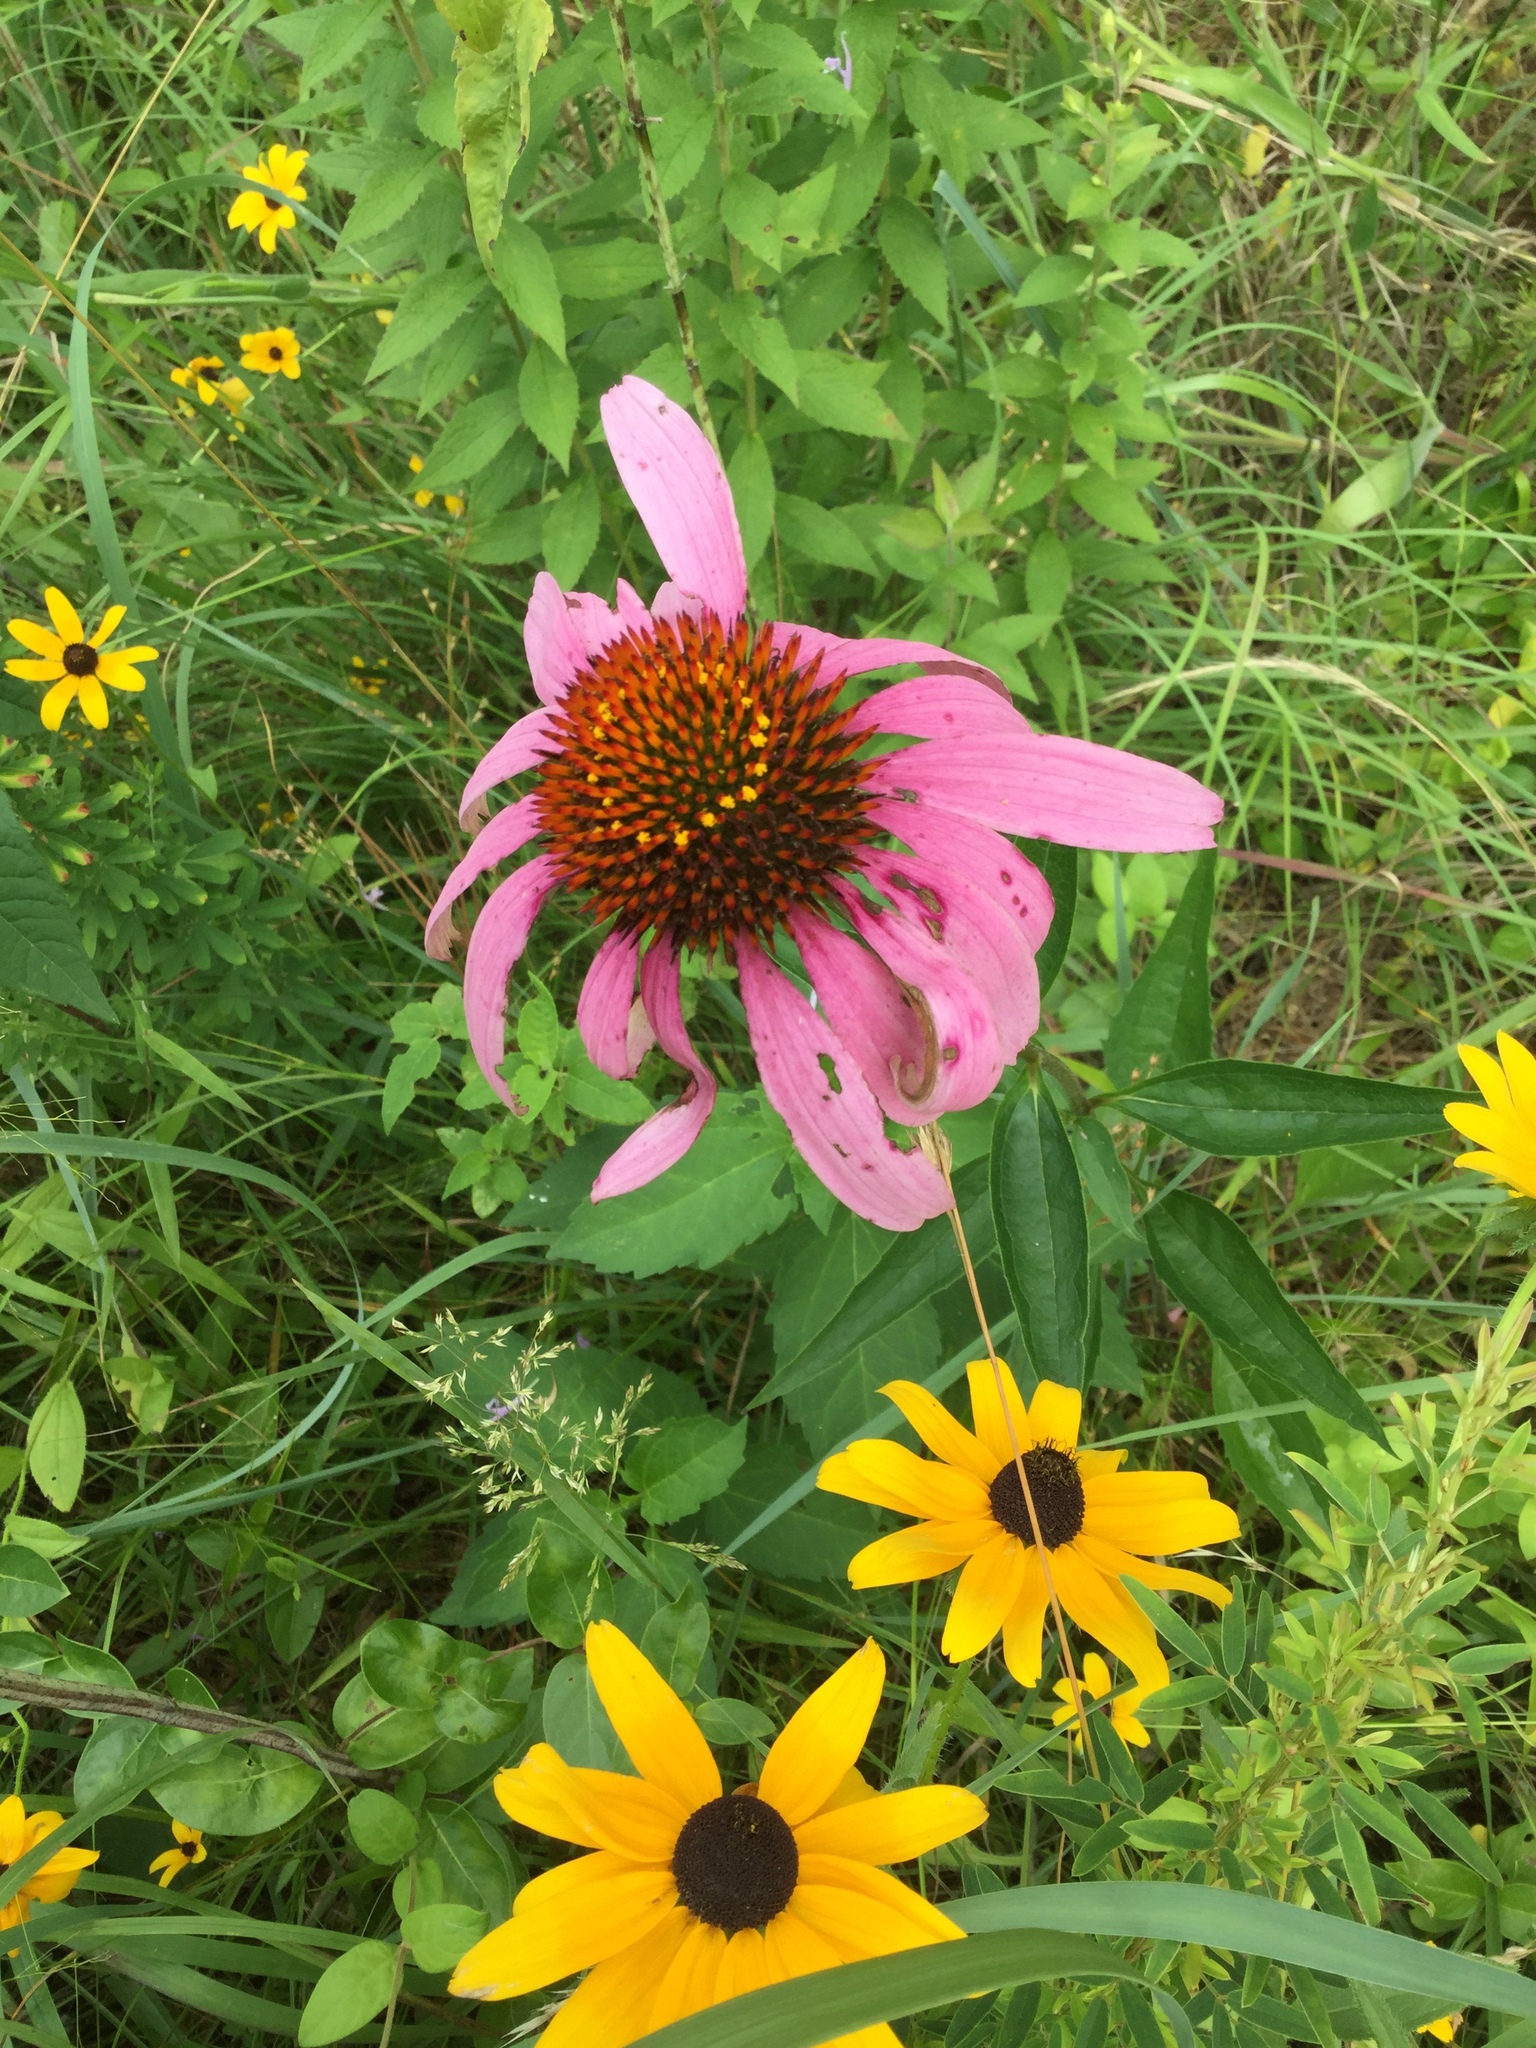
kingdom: Plantae
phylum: Tracheophyta
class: Magnoliopsida
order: Asterales
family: Asteraceae
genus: Echinacea
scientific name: Echinacea purpurea
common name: Broad-leaved purple coneflower
